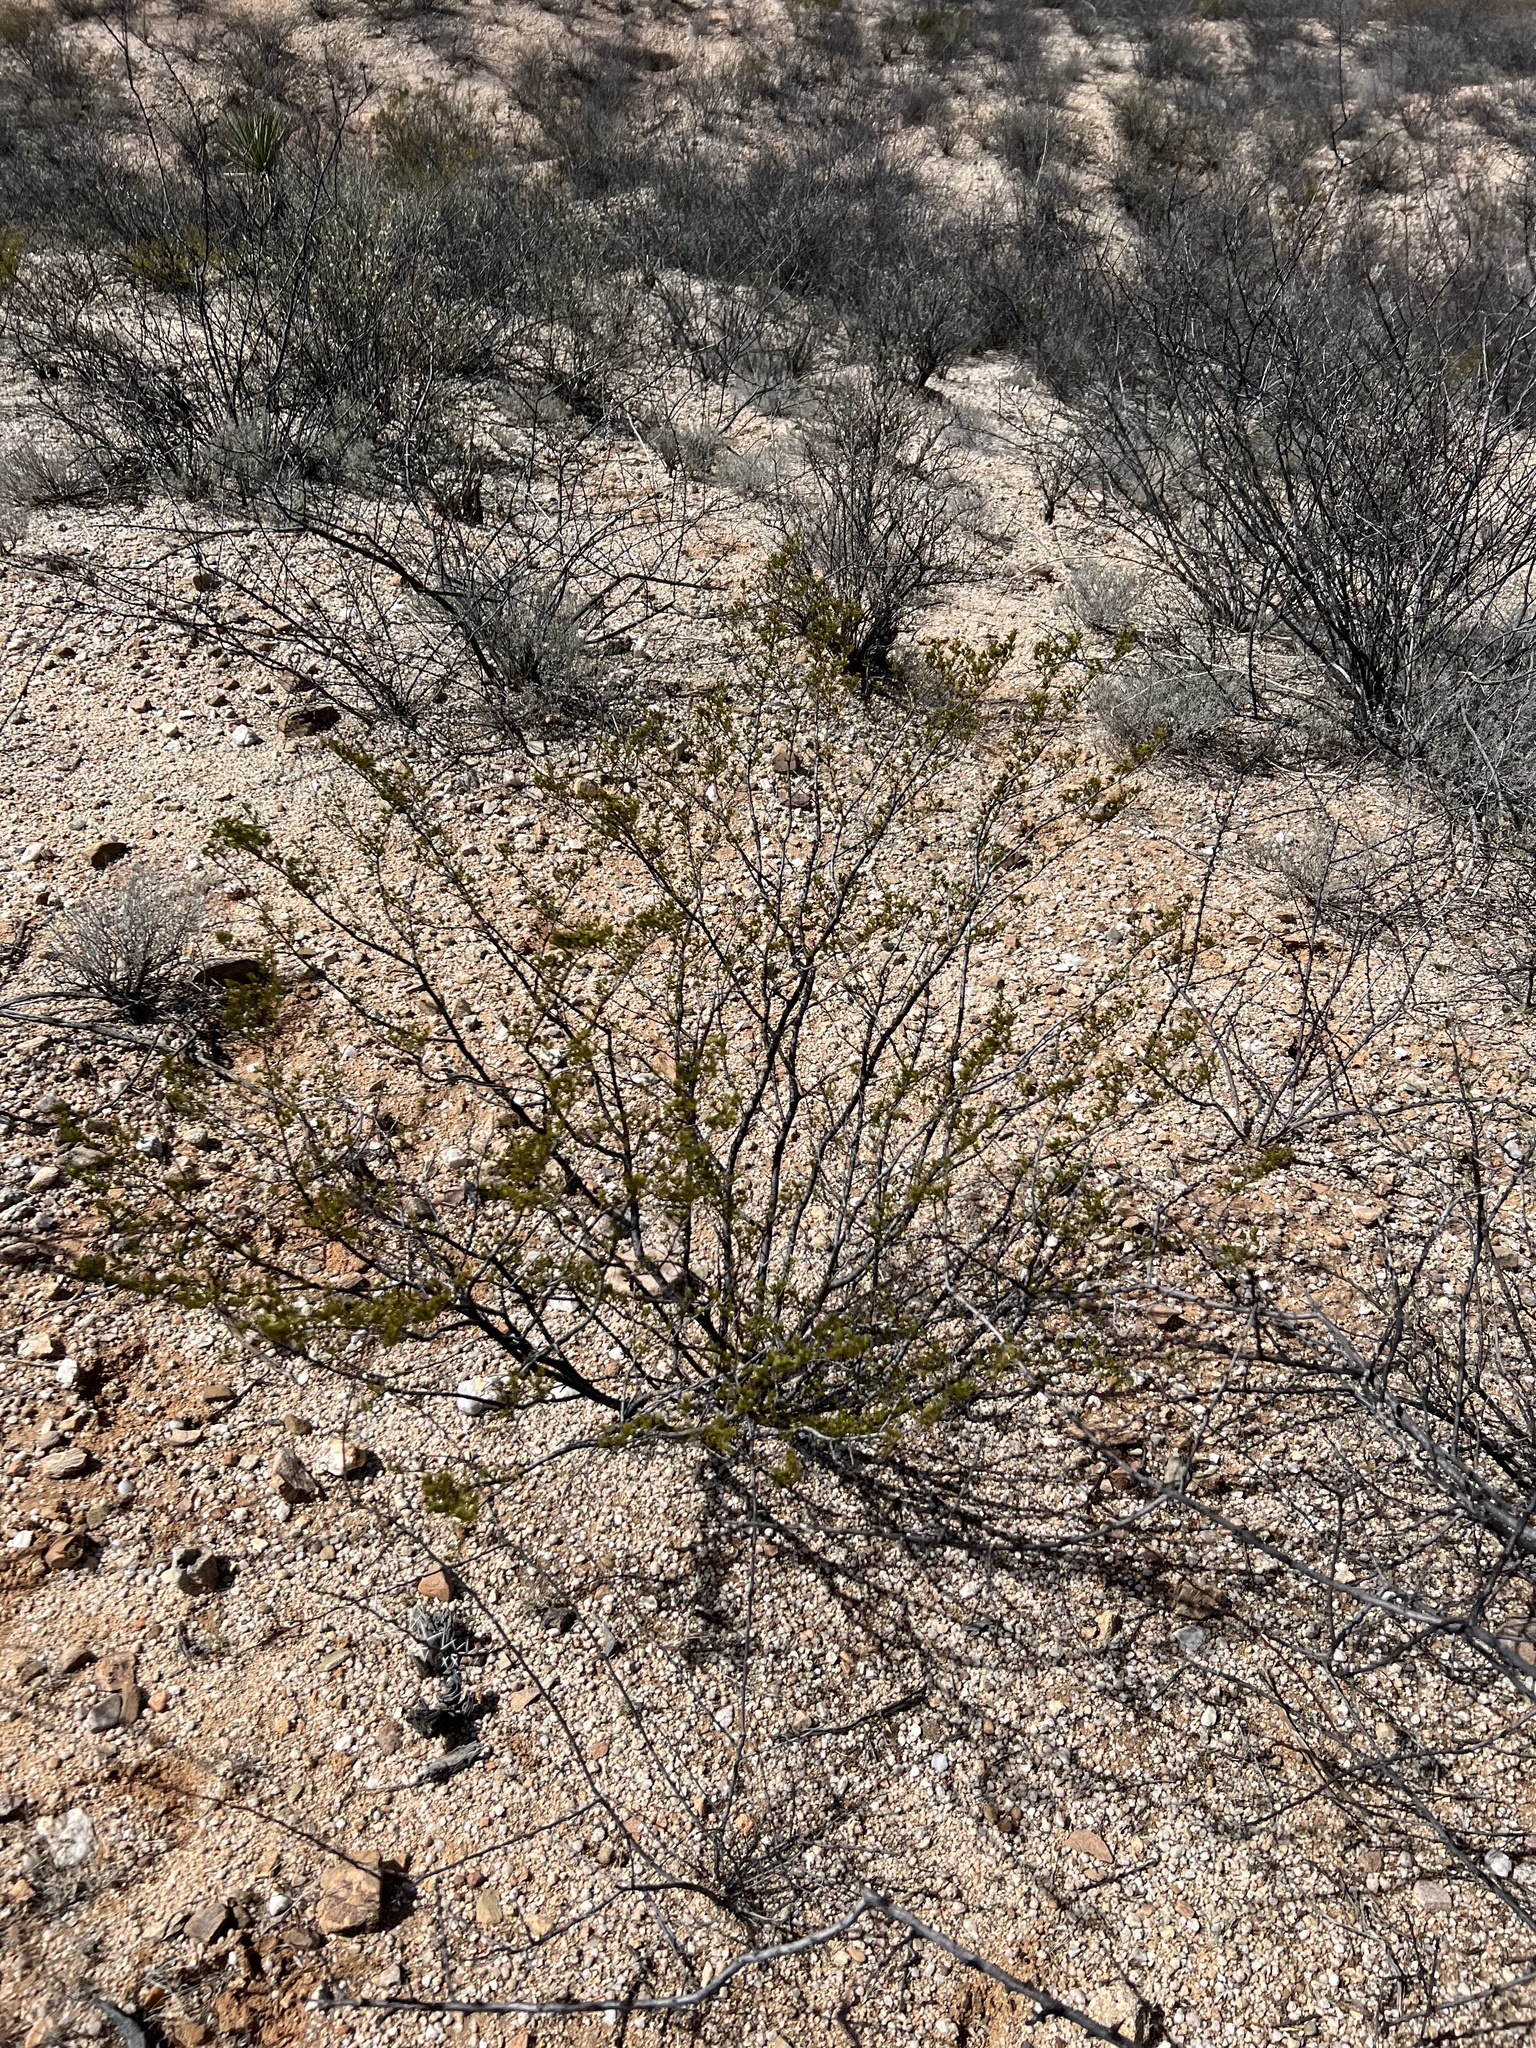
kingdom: Plantae
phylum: Tracheophyta
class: Magnoliopsida
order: Zygophyllales
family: Zygophyllaceae
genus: Larrea
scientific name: Larrea tridentata
